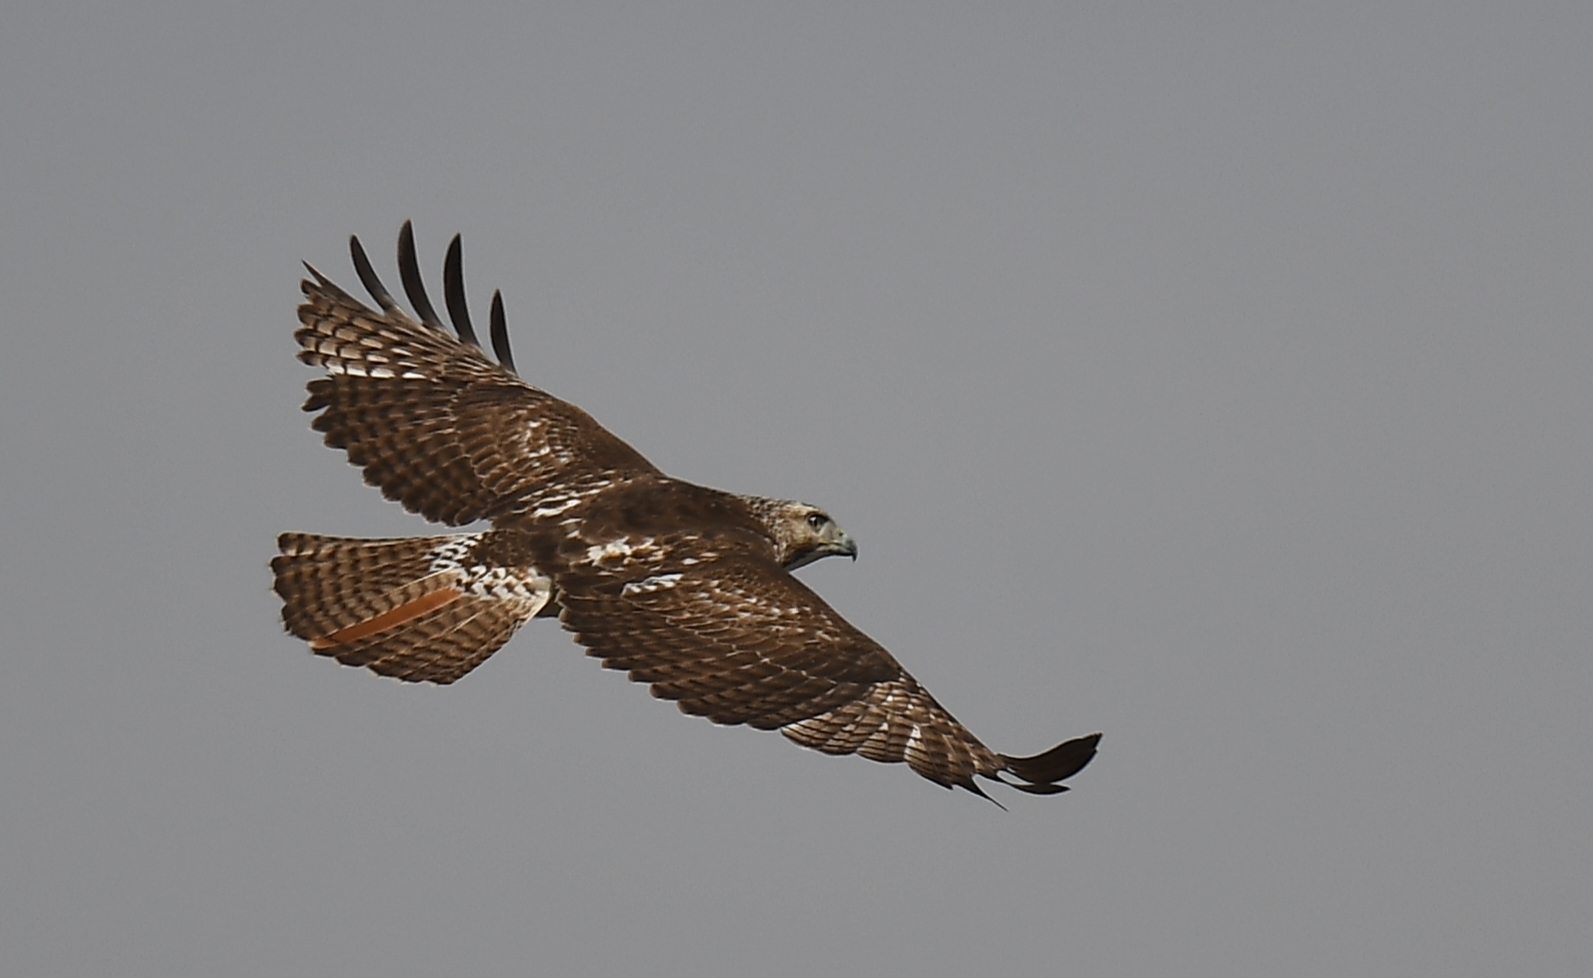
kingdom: Animalia
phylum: Chordata
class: Aves
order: Accipitriformes
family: Accipitridae
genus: Buteo
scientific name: Buteo jamaicensis
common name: Red-tailed hawk
